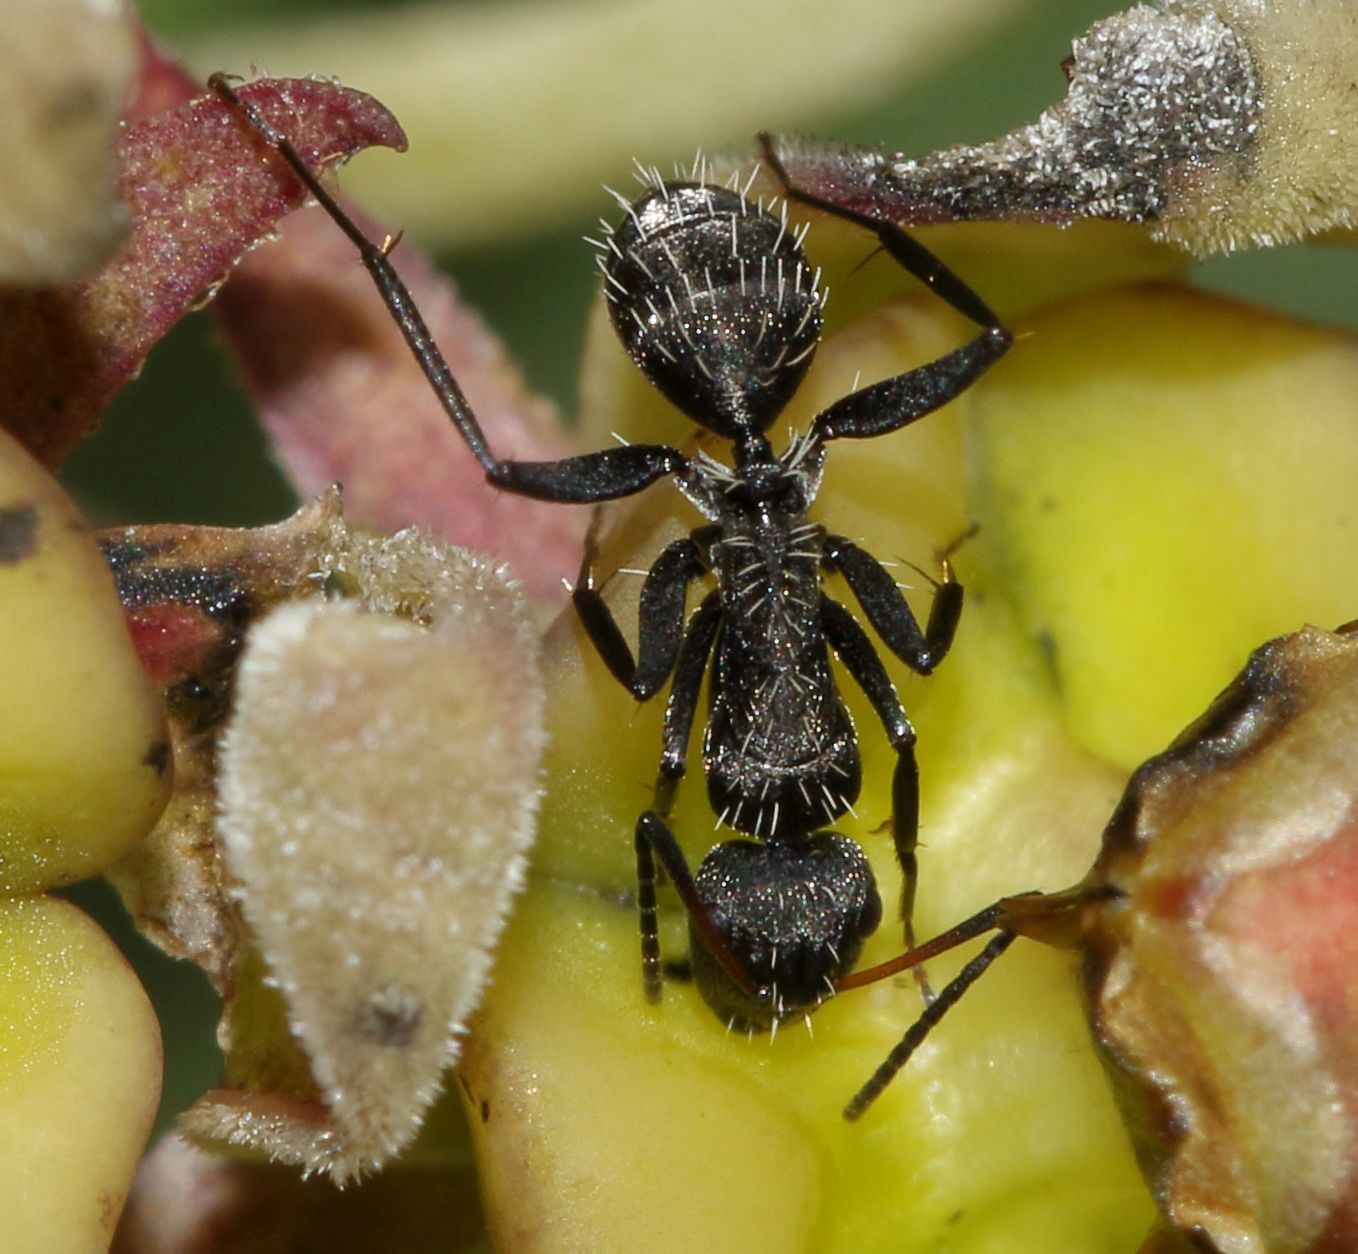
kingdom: Animalia
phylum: Arthropoda
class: Insecta
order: Hymenoptera
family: Formicidae
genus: Camponotus
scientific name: Camponotus niveosetosus
